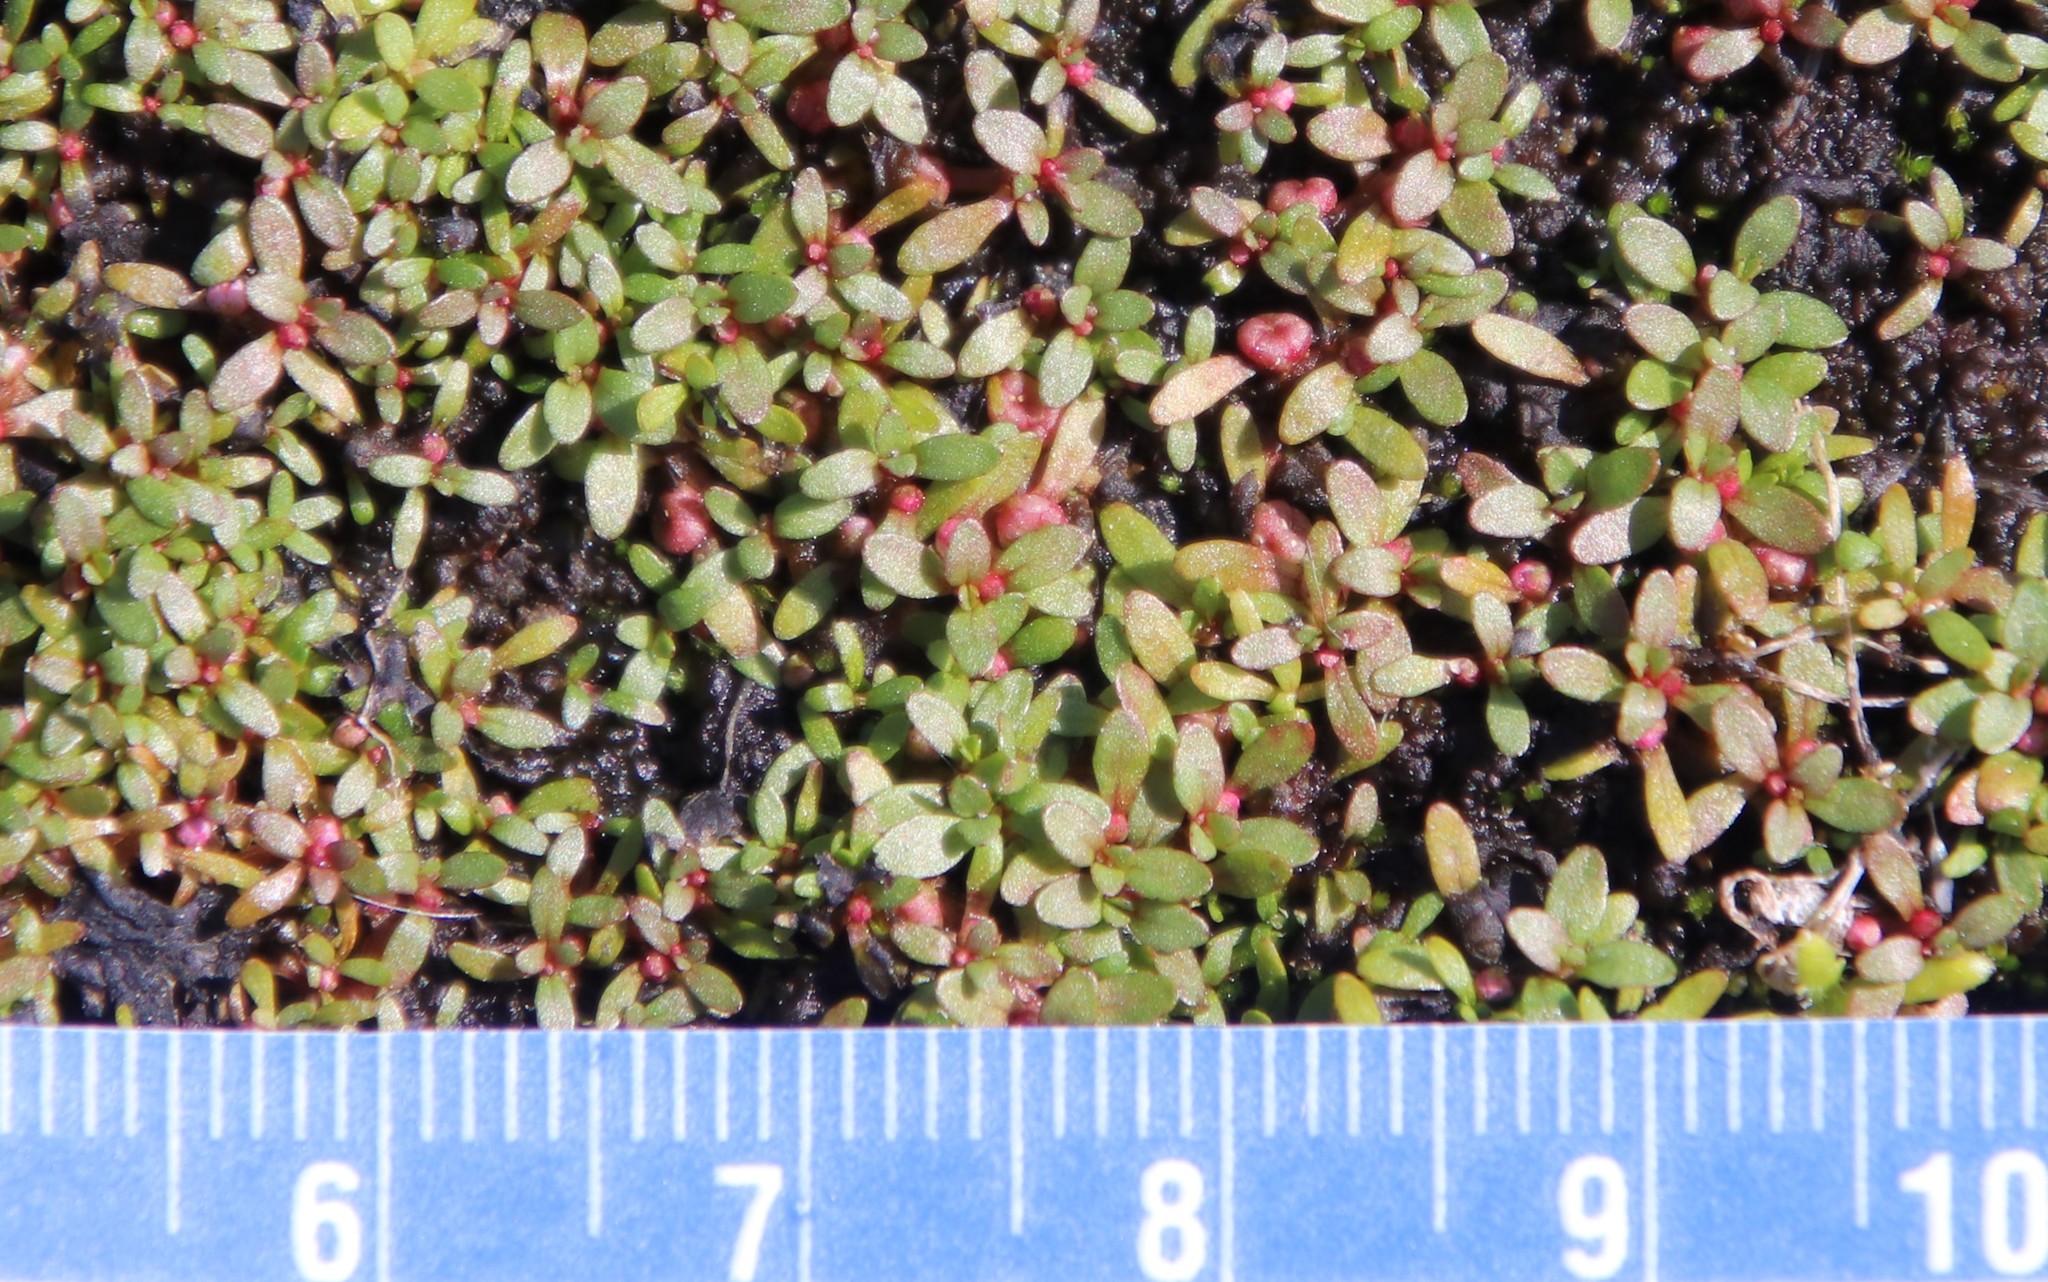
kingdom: Plantae
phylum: Tracheophyta
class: Magnoliopsida
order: Malpighiales
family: Elatinaceae
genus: Elatine
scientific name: Elatine brachysperma
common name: Short-fruited waterwort
